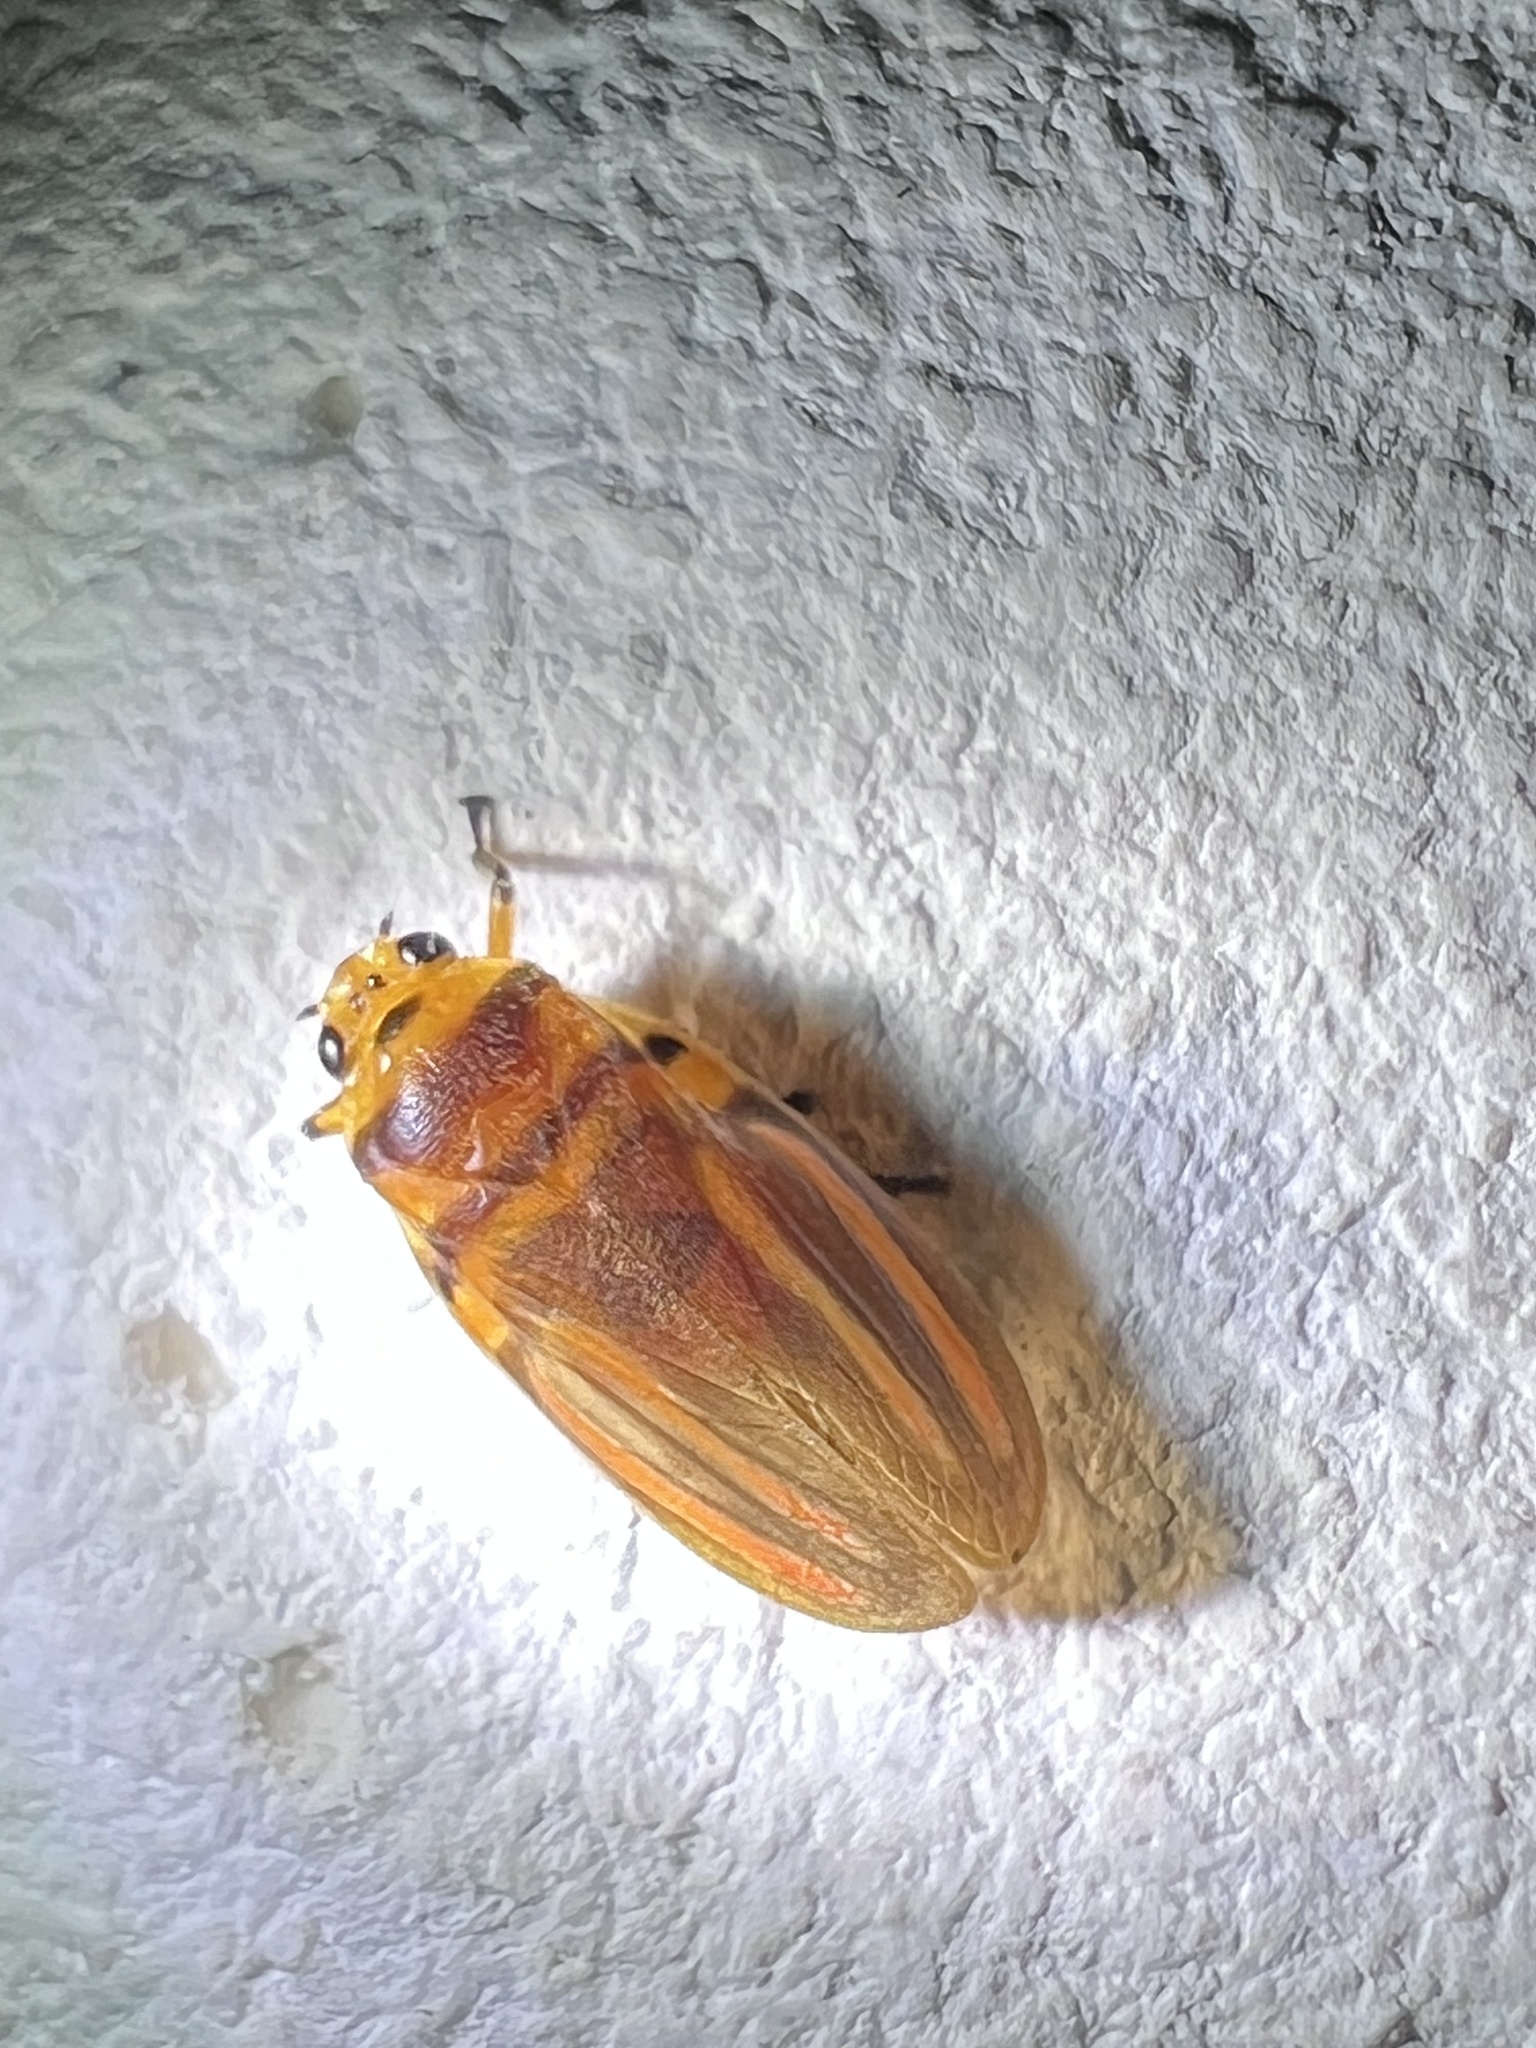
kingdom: Animalia
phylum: Arthropoda
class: Insecta
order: Hemiptera
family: Cercopidae
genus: Ocoaxo
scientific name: Ocoaxo
